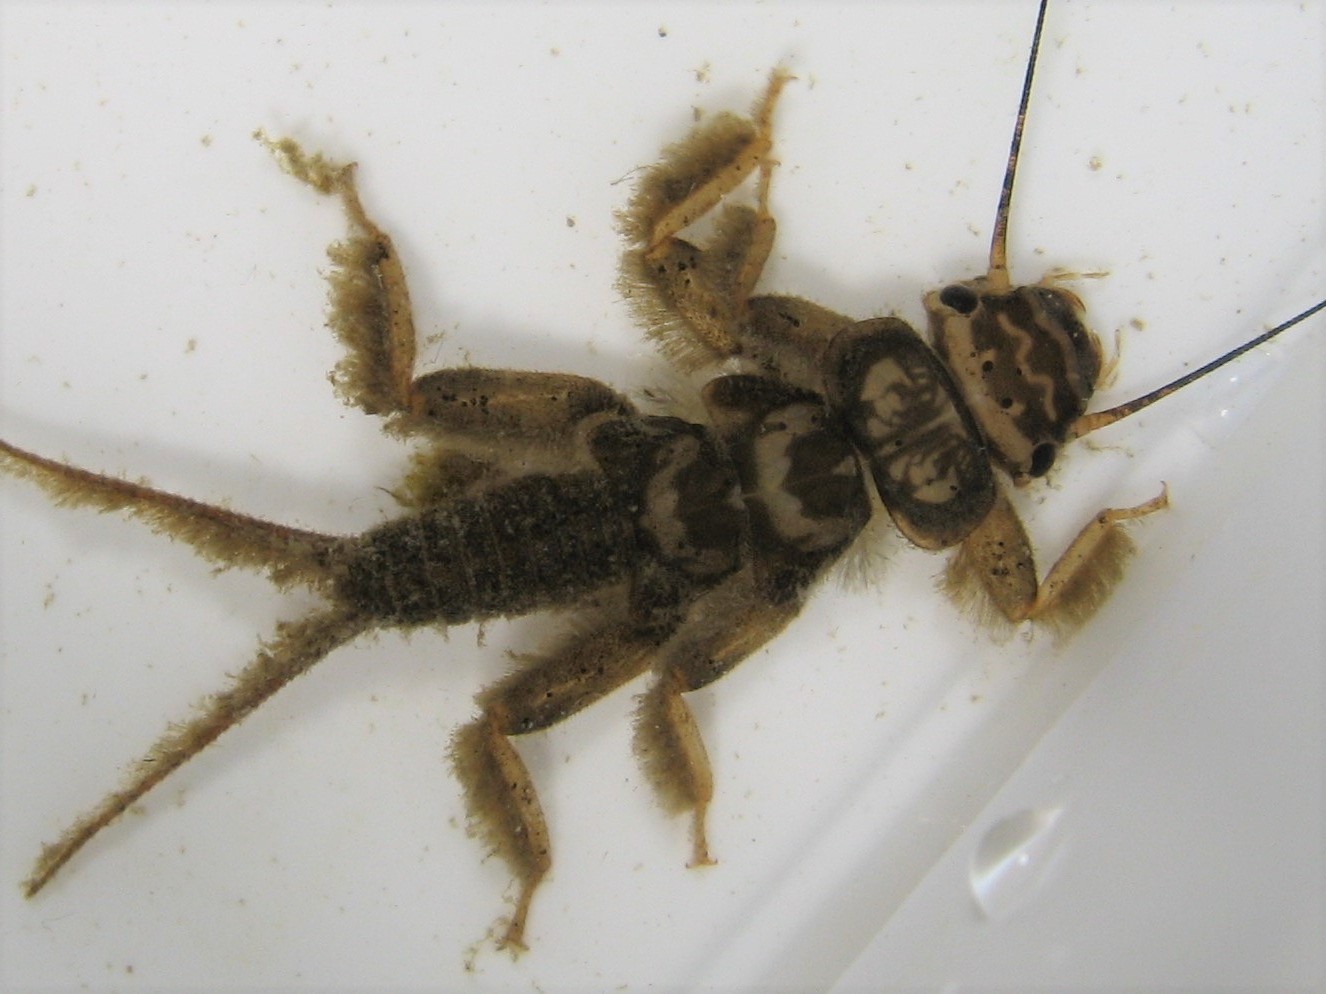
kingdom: Animalia
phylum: Arthropoda
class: Insecta
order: Plecoptera
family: Perlidae
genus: Acroneuria
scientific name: Acroneuria abnormis
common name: Common stone
